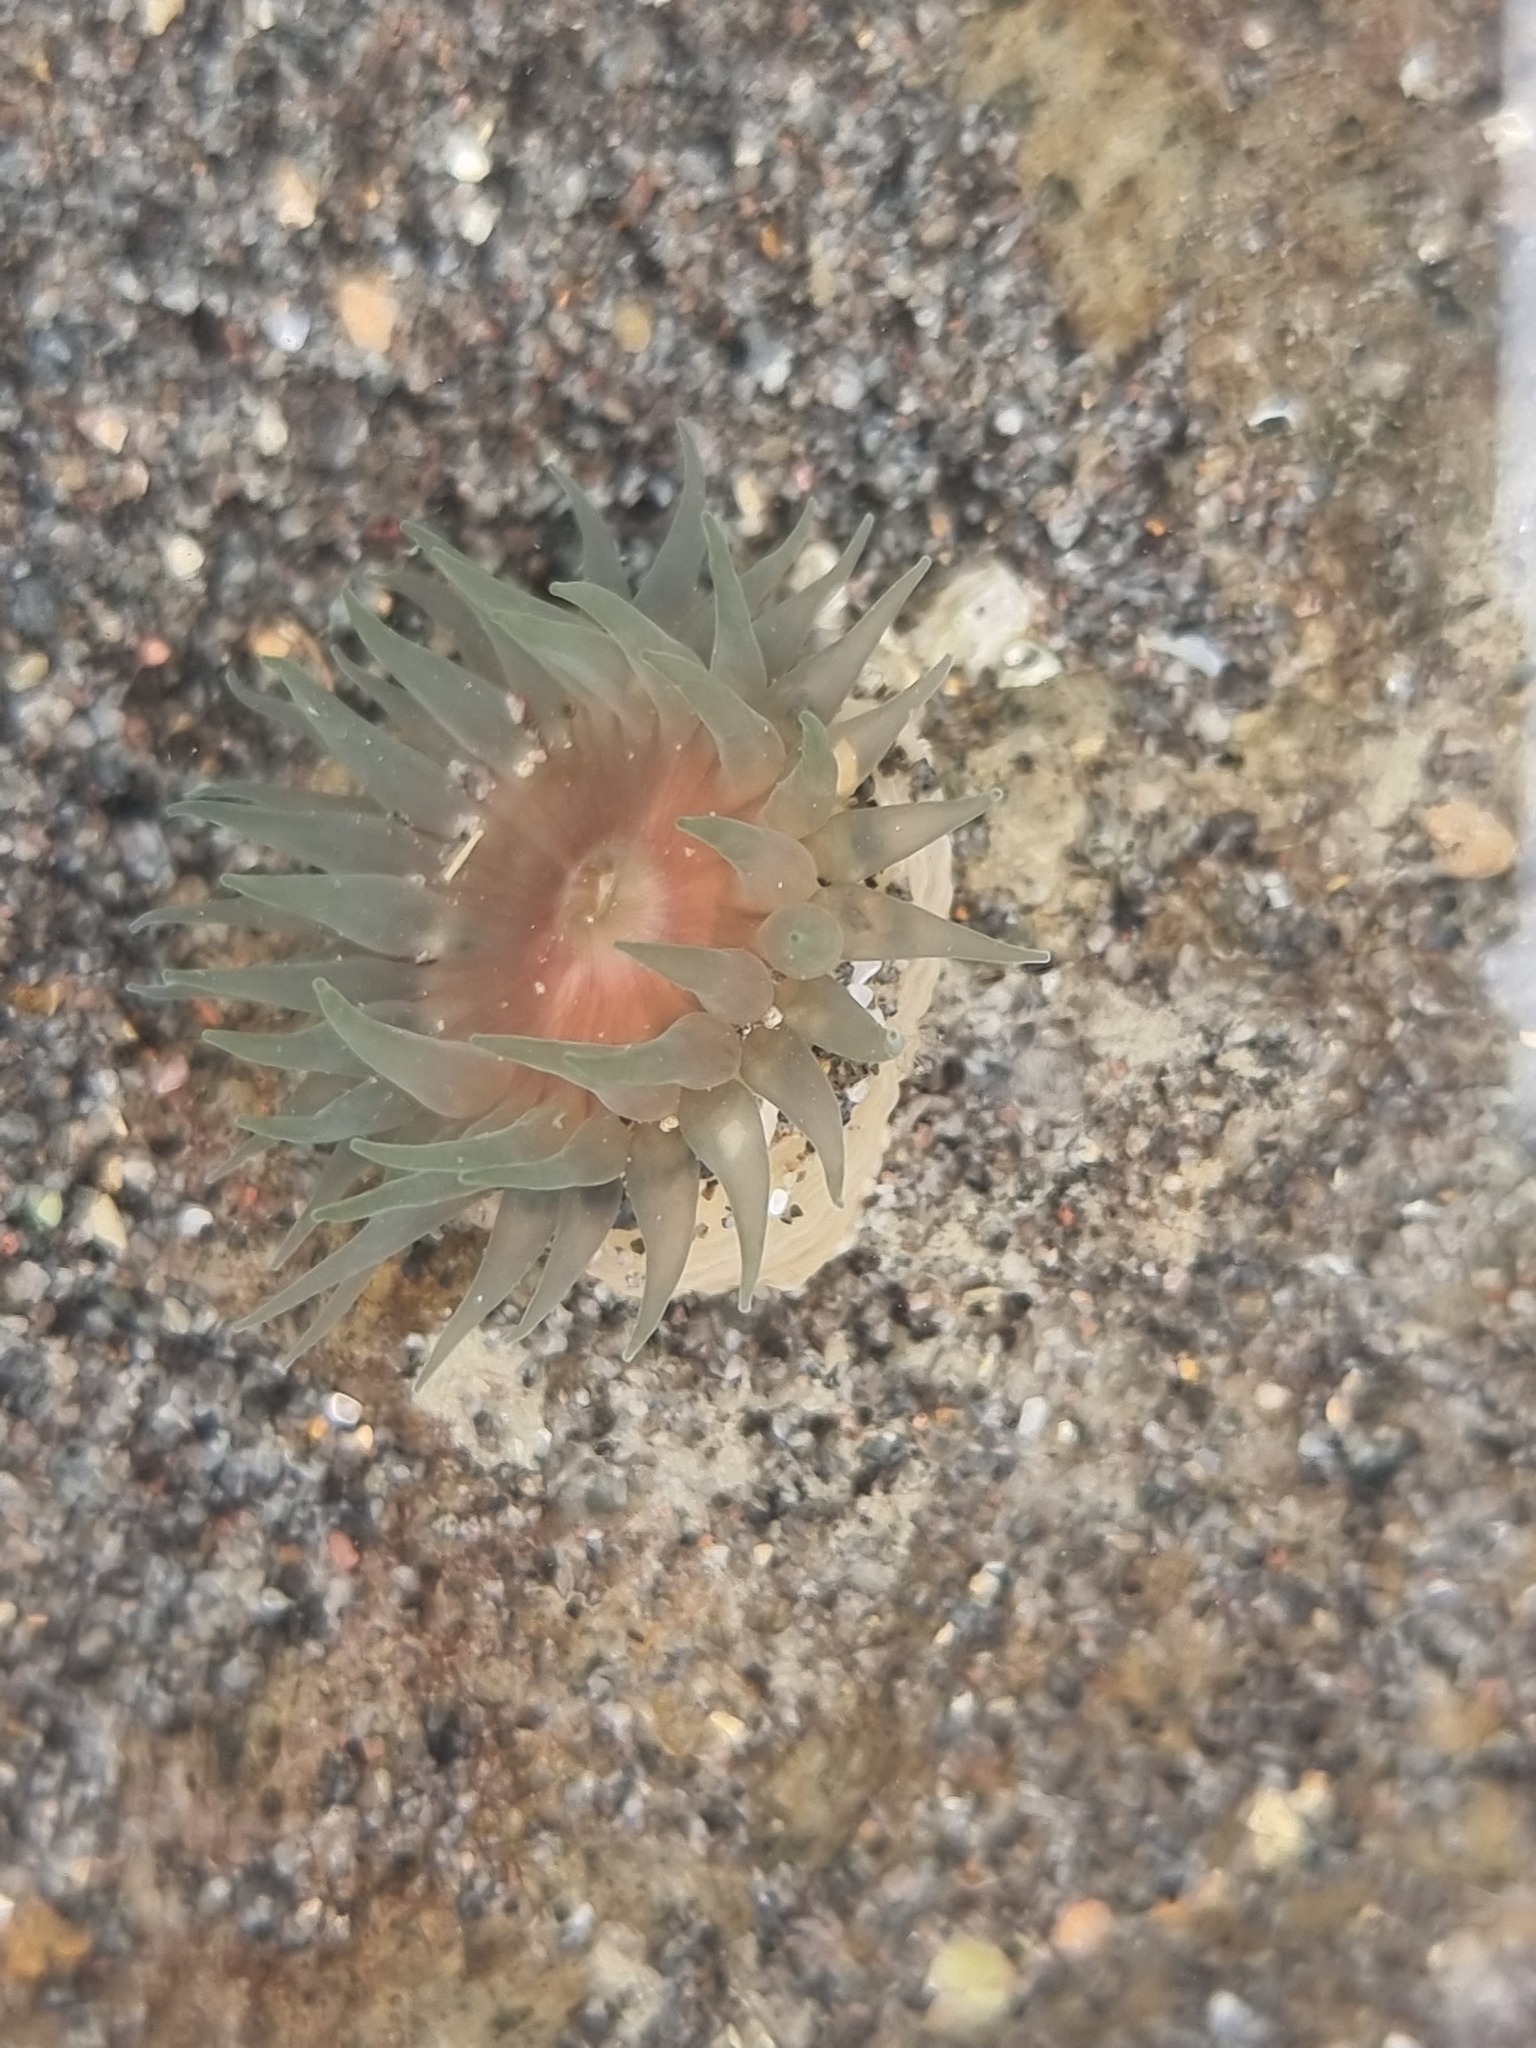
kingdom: Animalia
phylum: Cnidaria
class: Anthozoa
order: Actiniaria
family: Actiniidae
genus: Isactinia
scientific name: Isactinia olivacea
